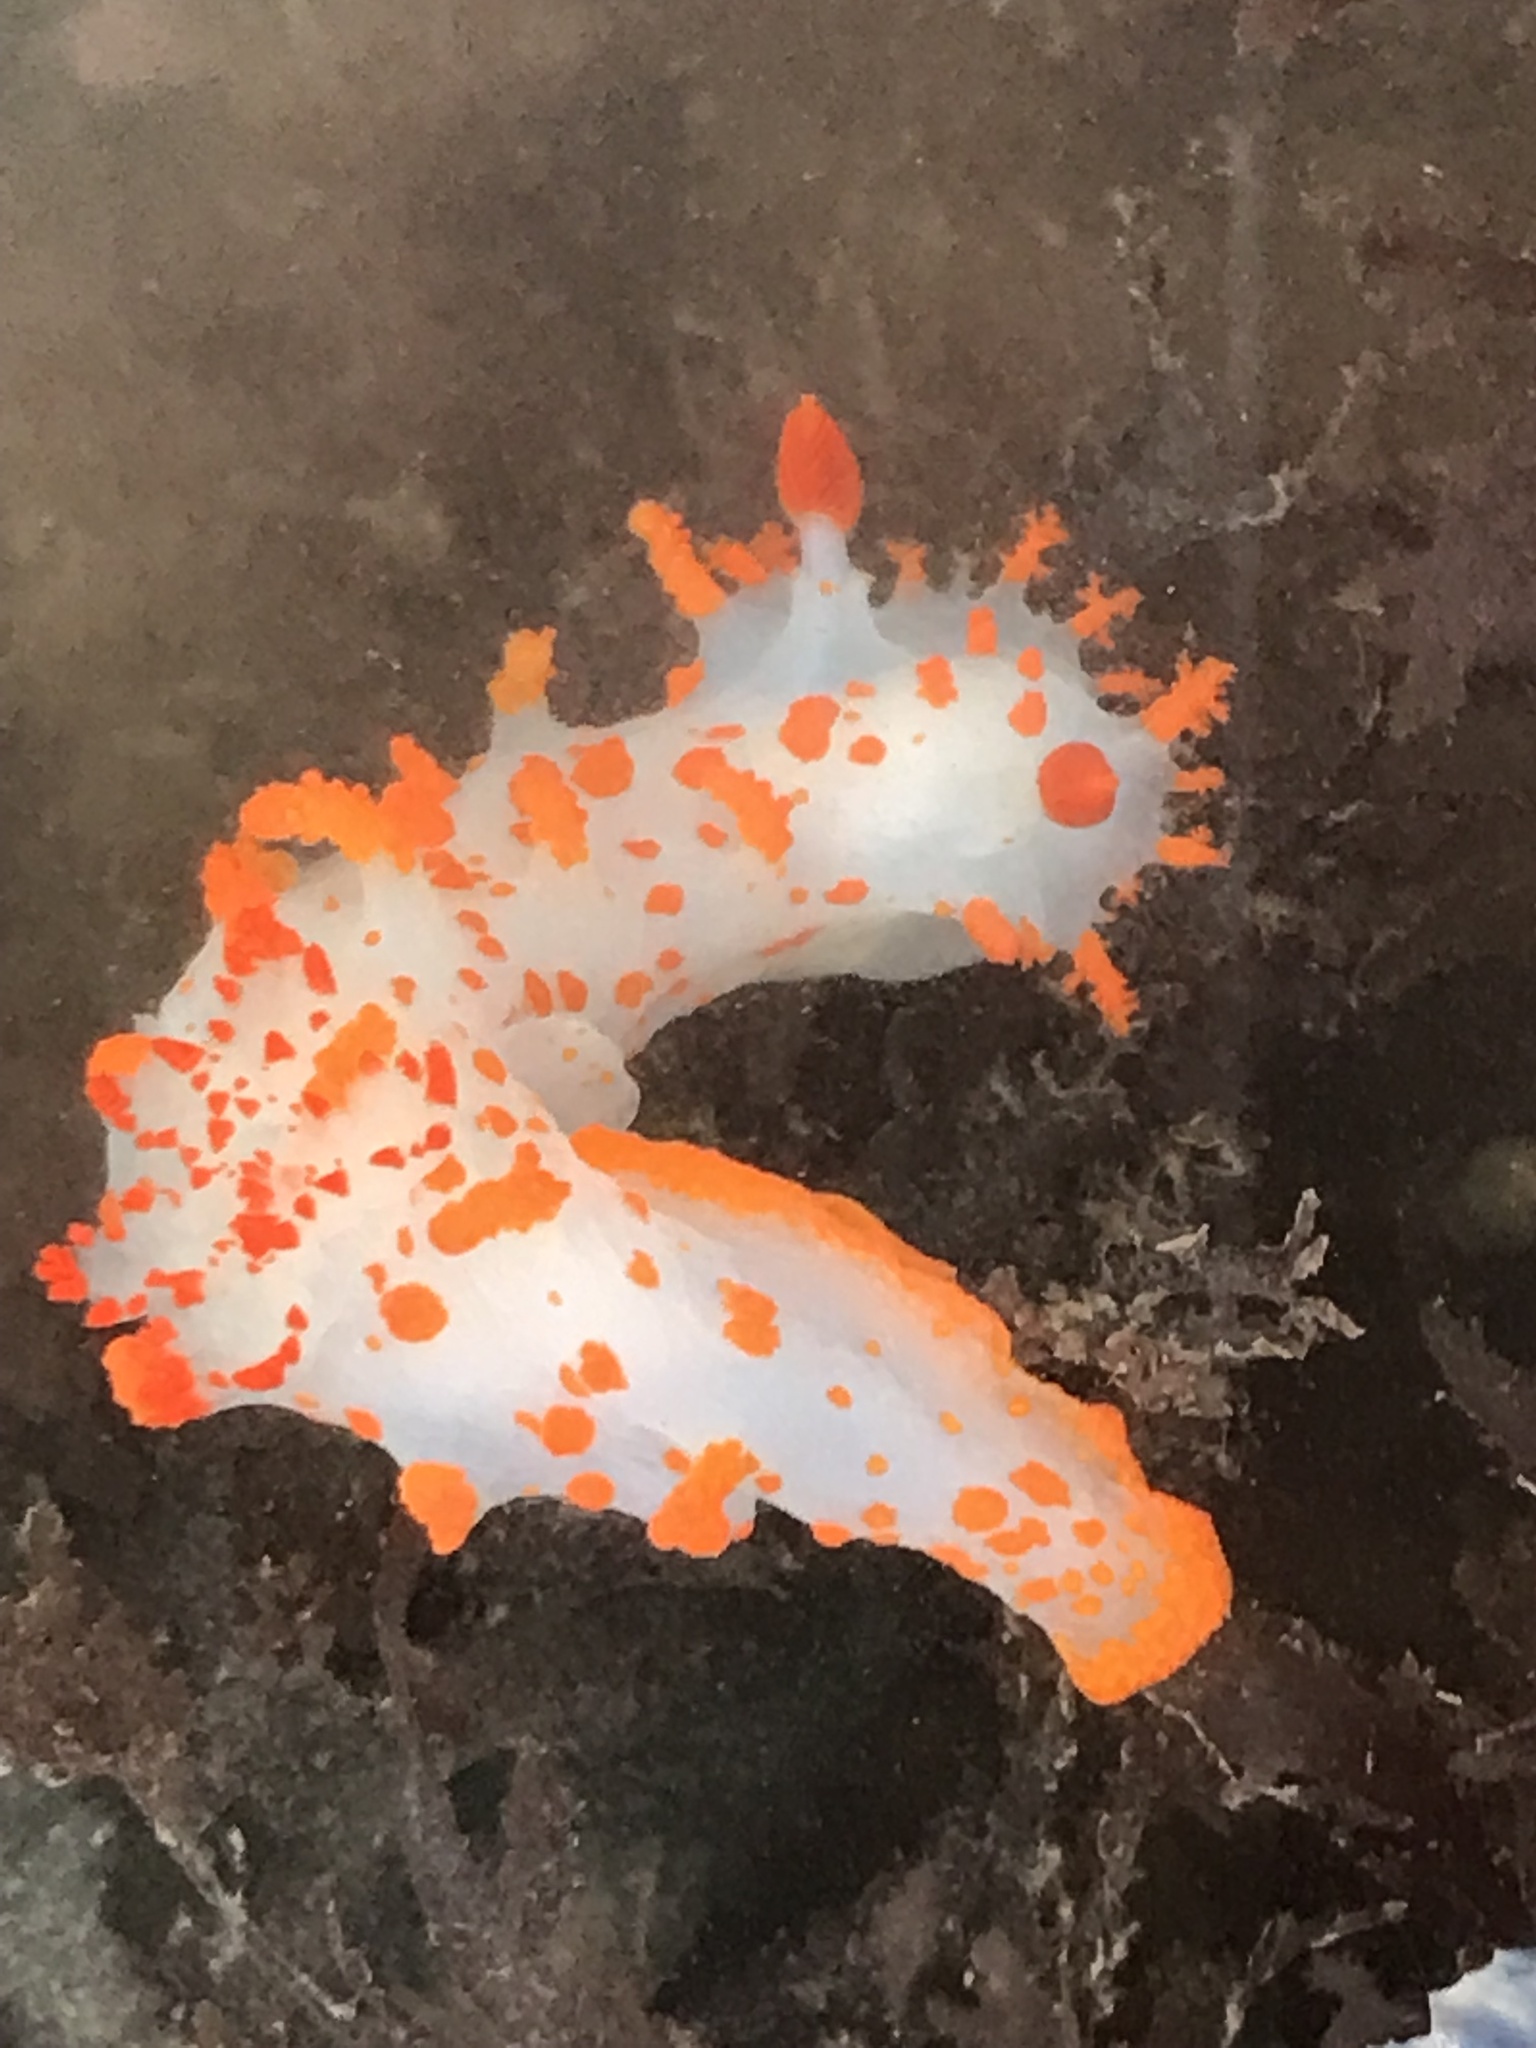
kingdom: Animalia
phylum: Mollusca
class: Gastropoda
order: Nudibranchia
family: Polyceridae
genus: Triopha
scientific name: Triopha catalinae
